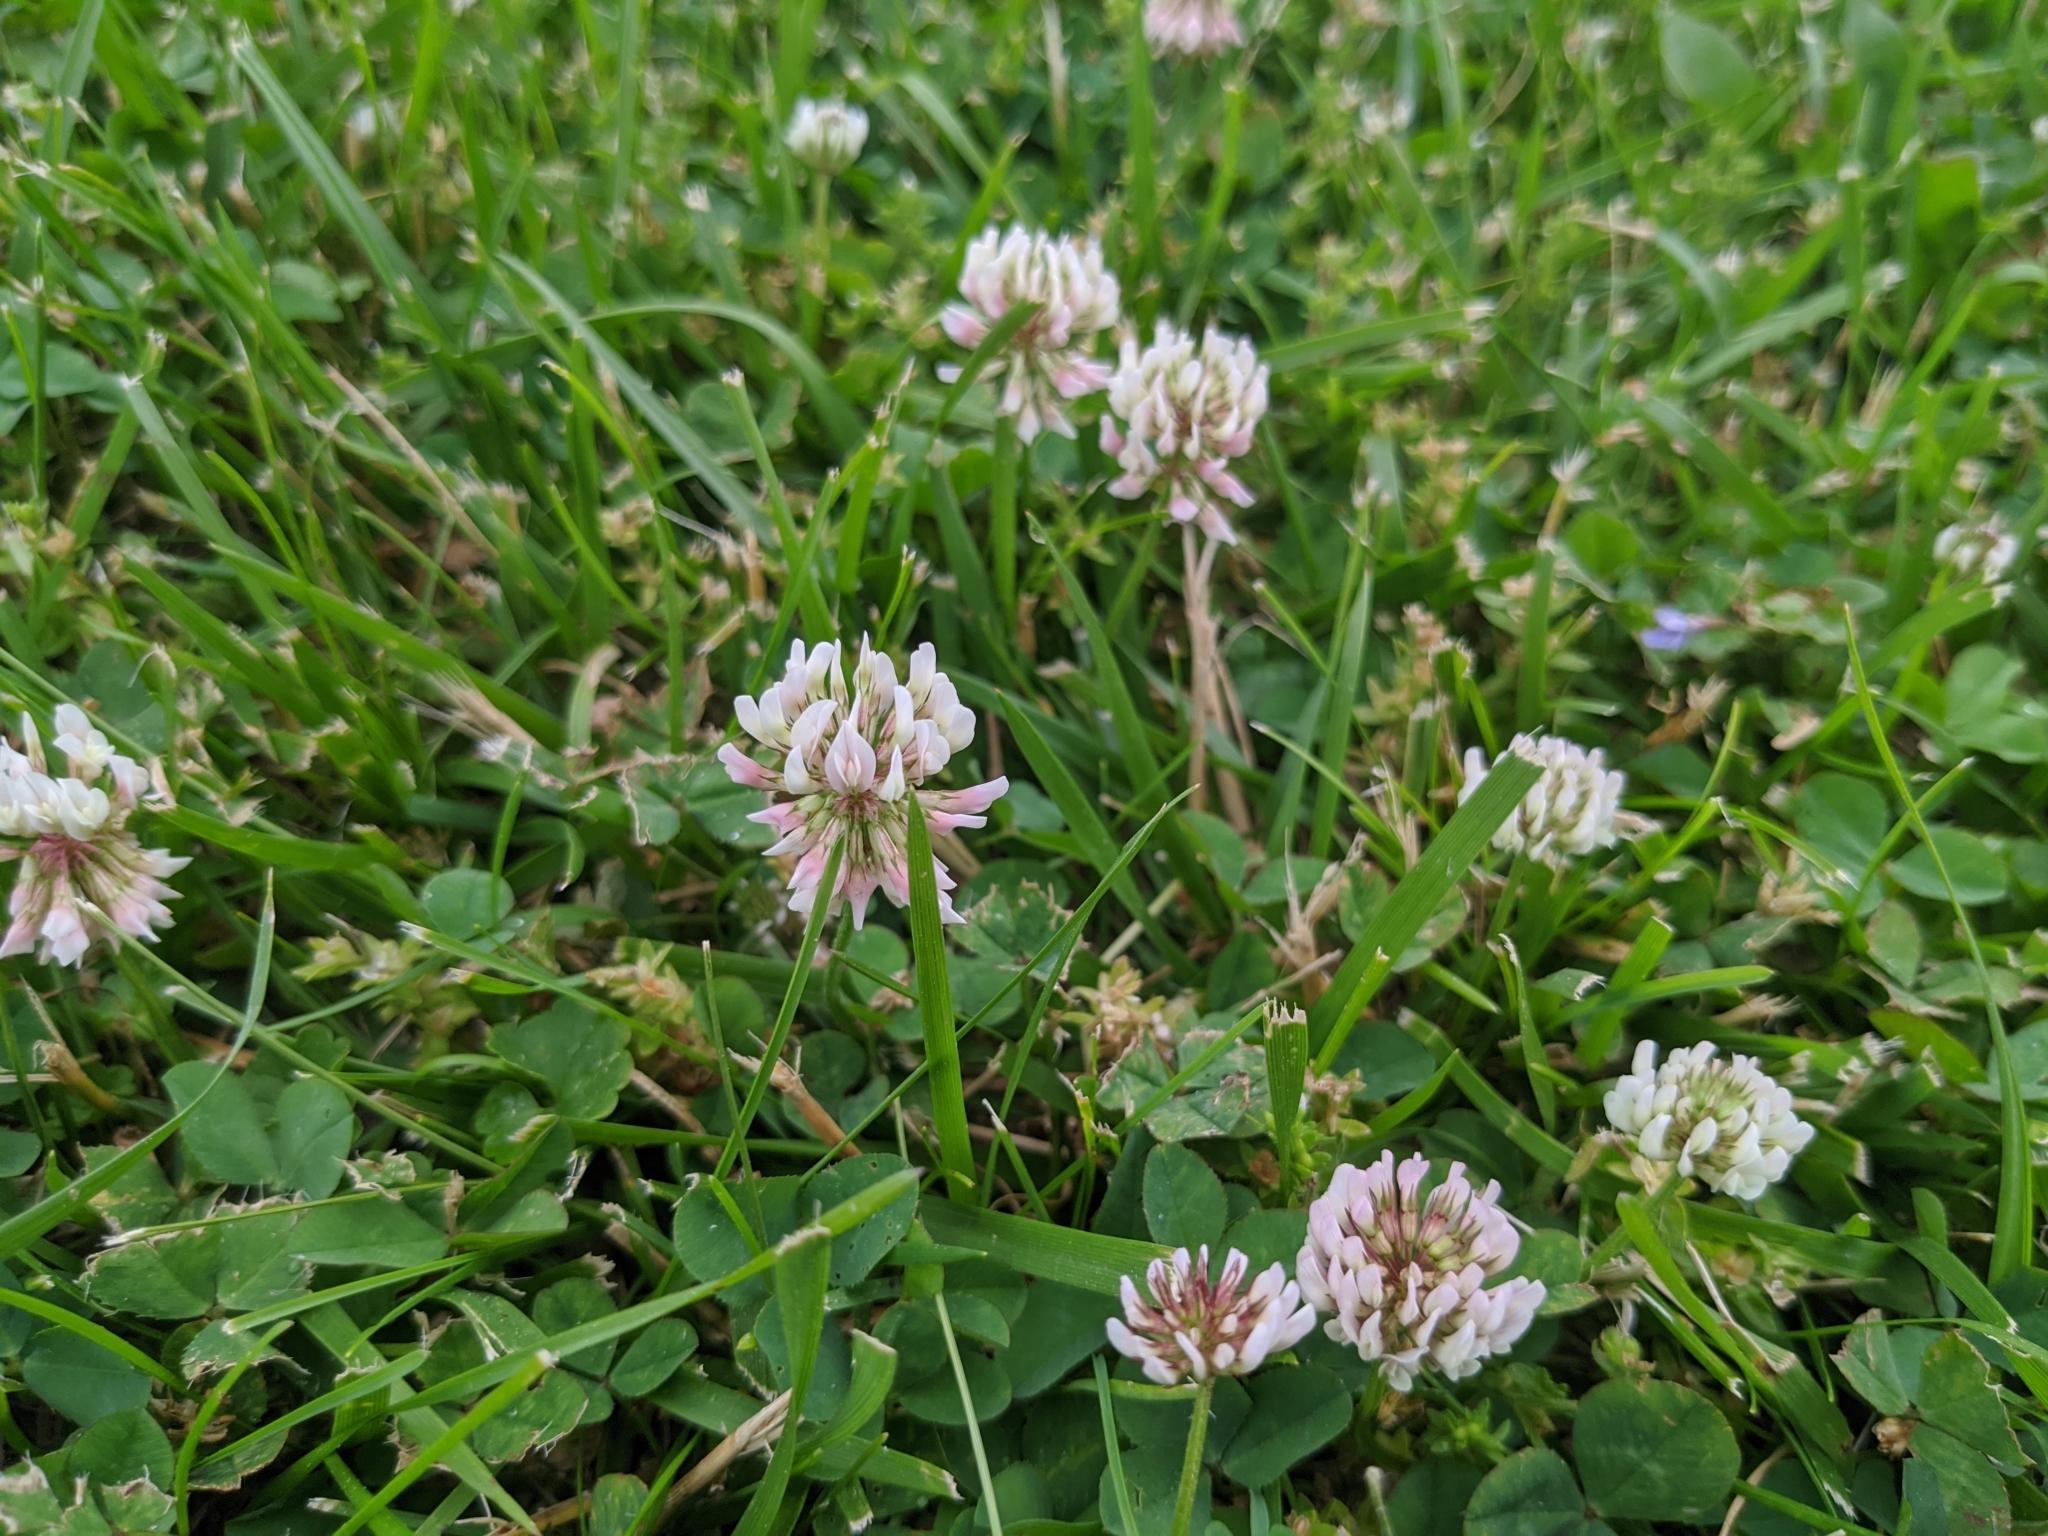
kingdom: Plantae
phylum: Tracheophyta
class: Magnoliopsida
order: Fabales
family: Fabaceae
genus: Trifolium
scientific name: Trifolium repens
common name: White clover
